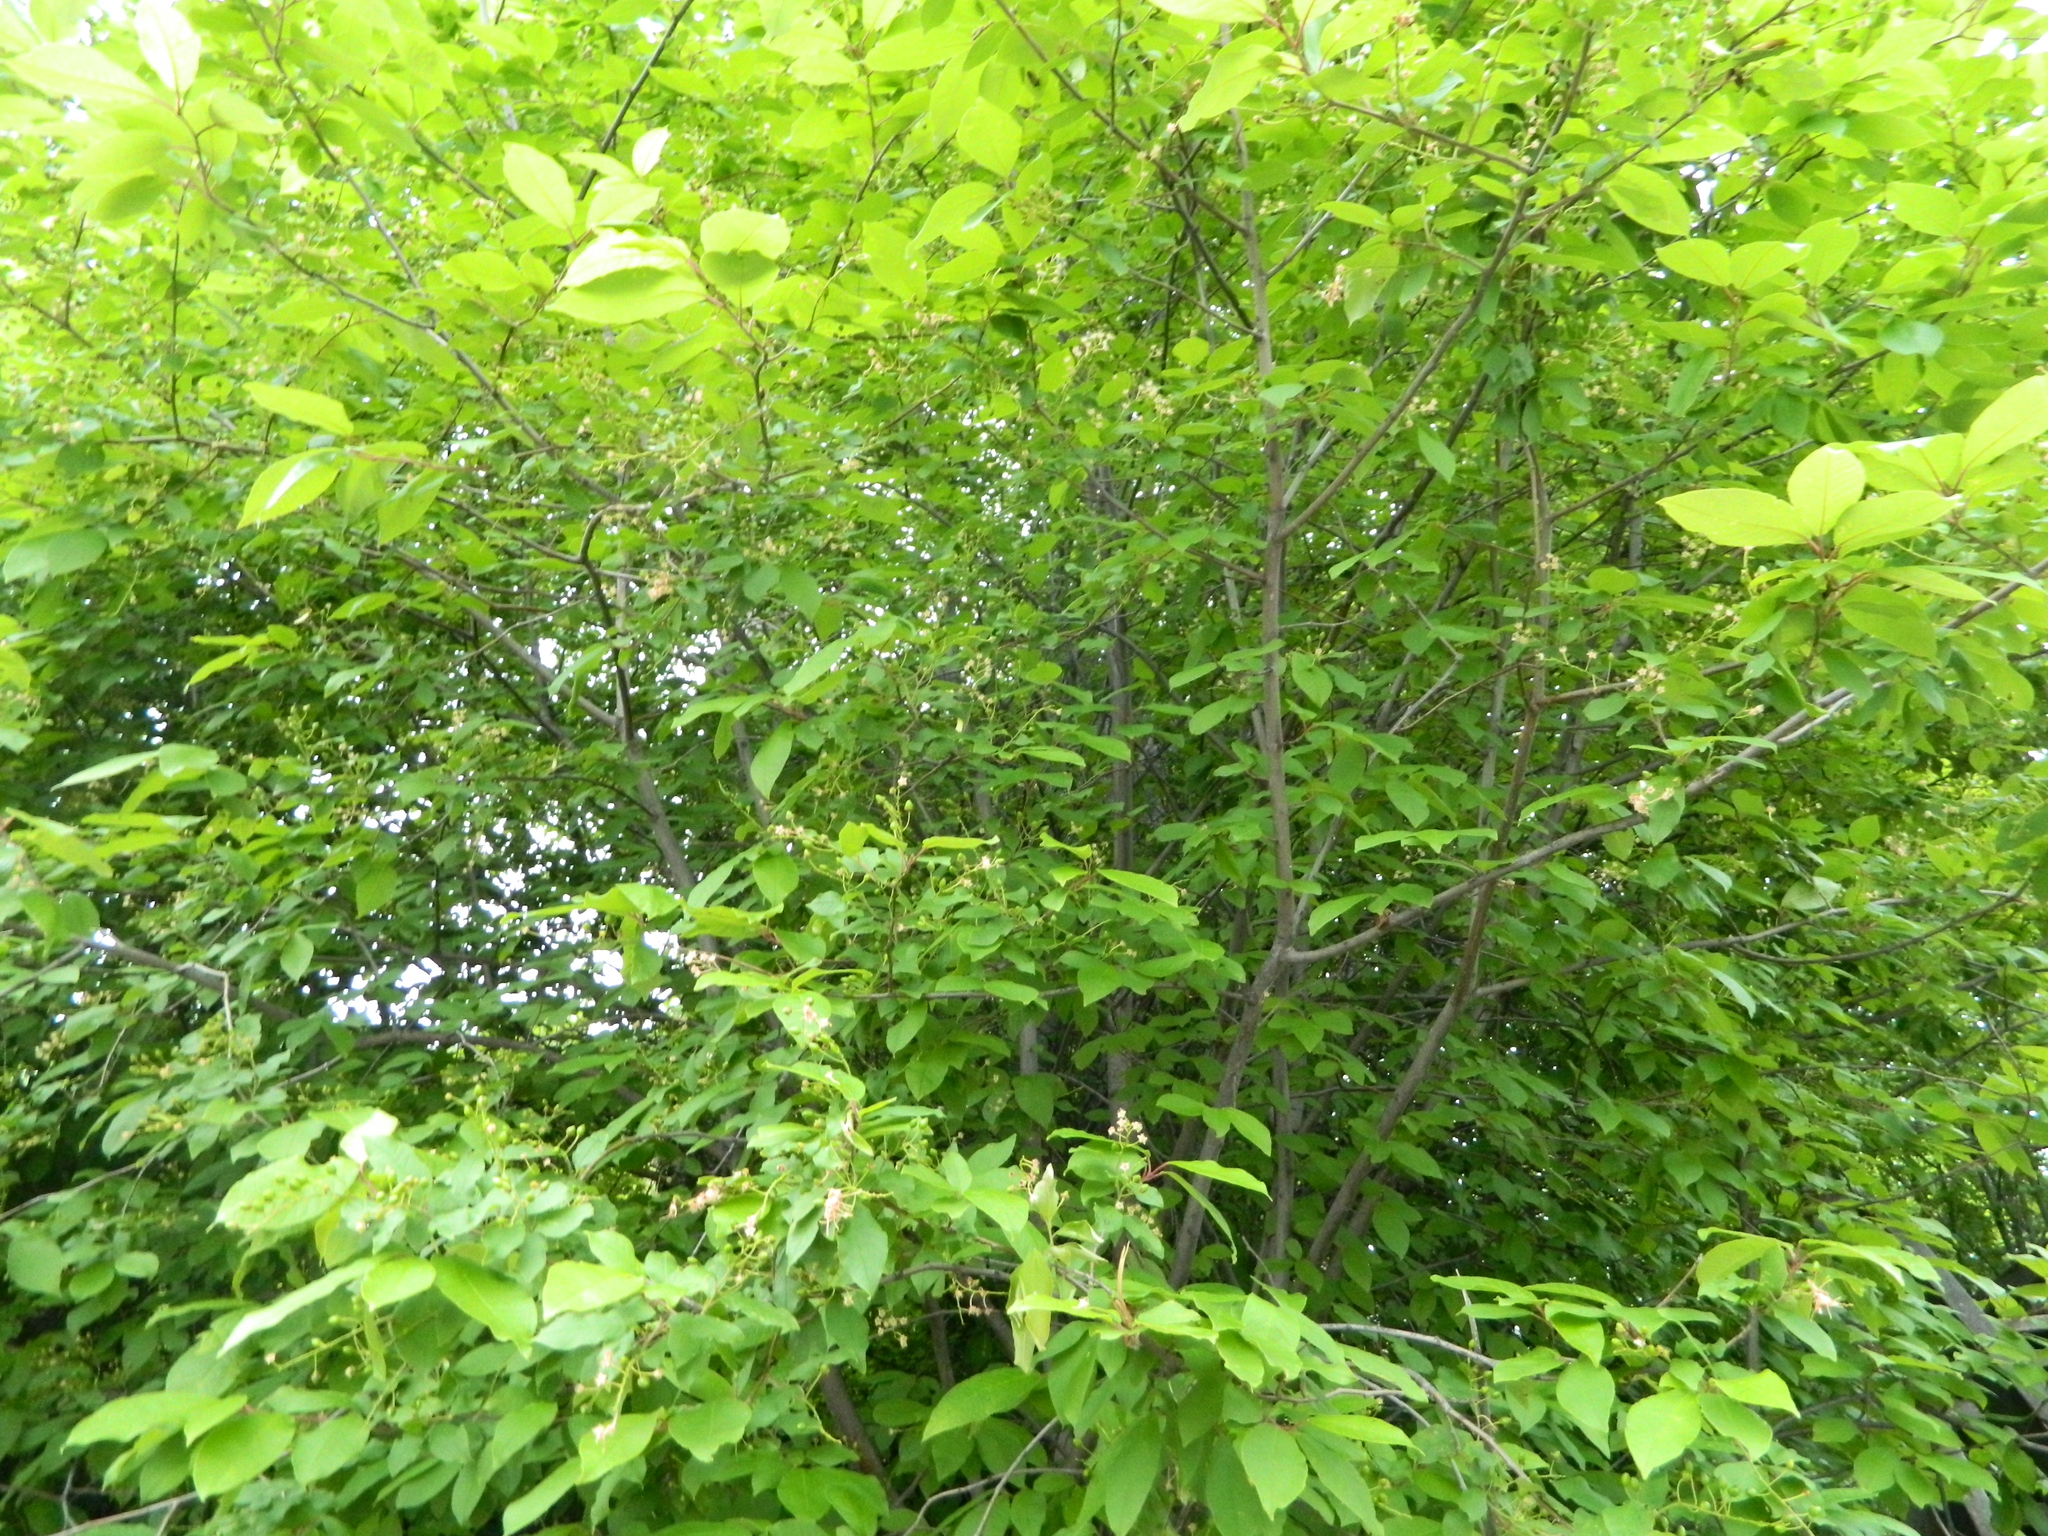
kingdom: Plantae
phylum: Tracheophyta
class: Magnoliopsida
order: Rosales
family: Rosaceae
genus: Prunus
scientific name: Prunus padus
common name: Bird cherry
